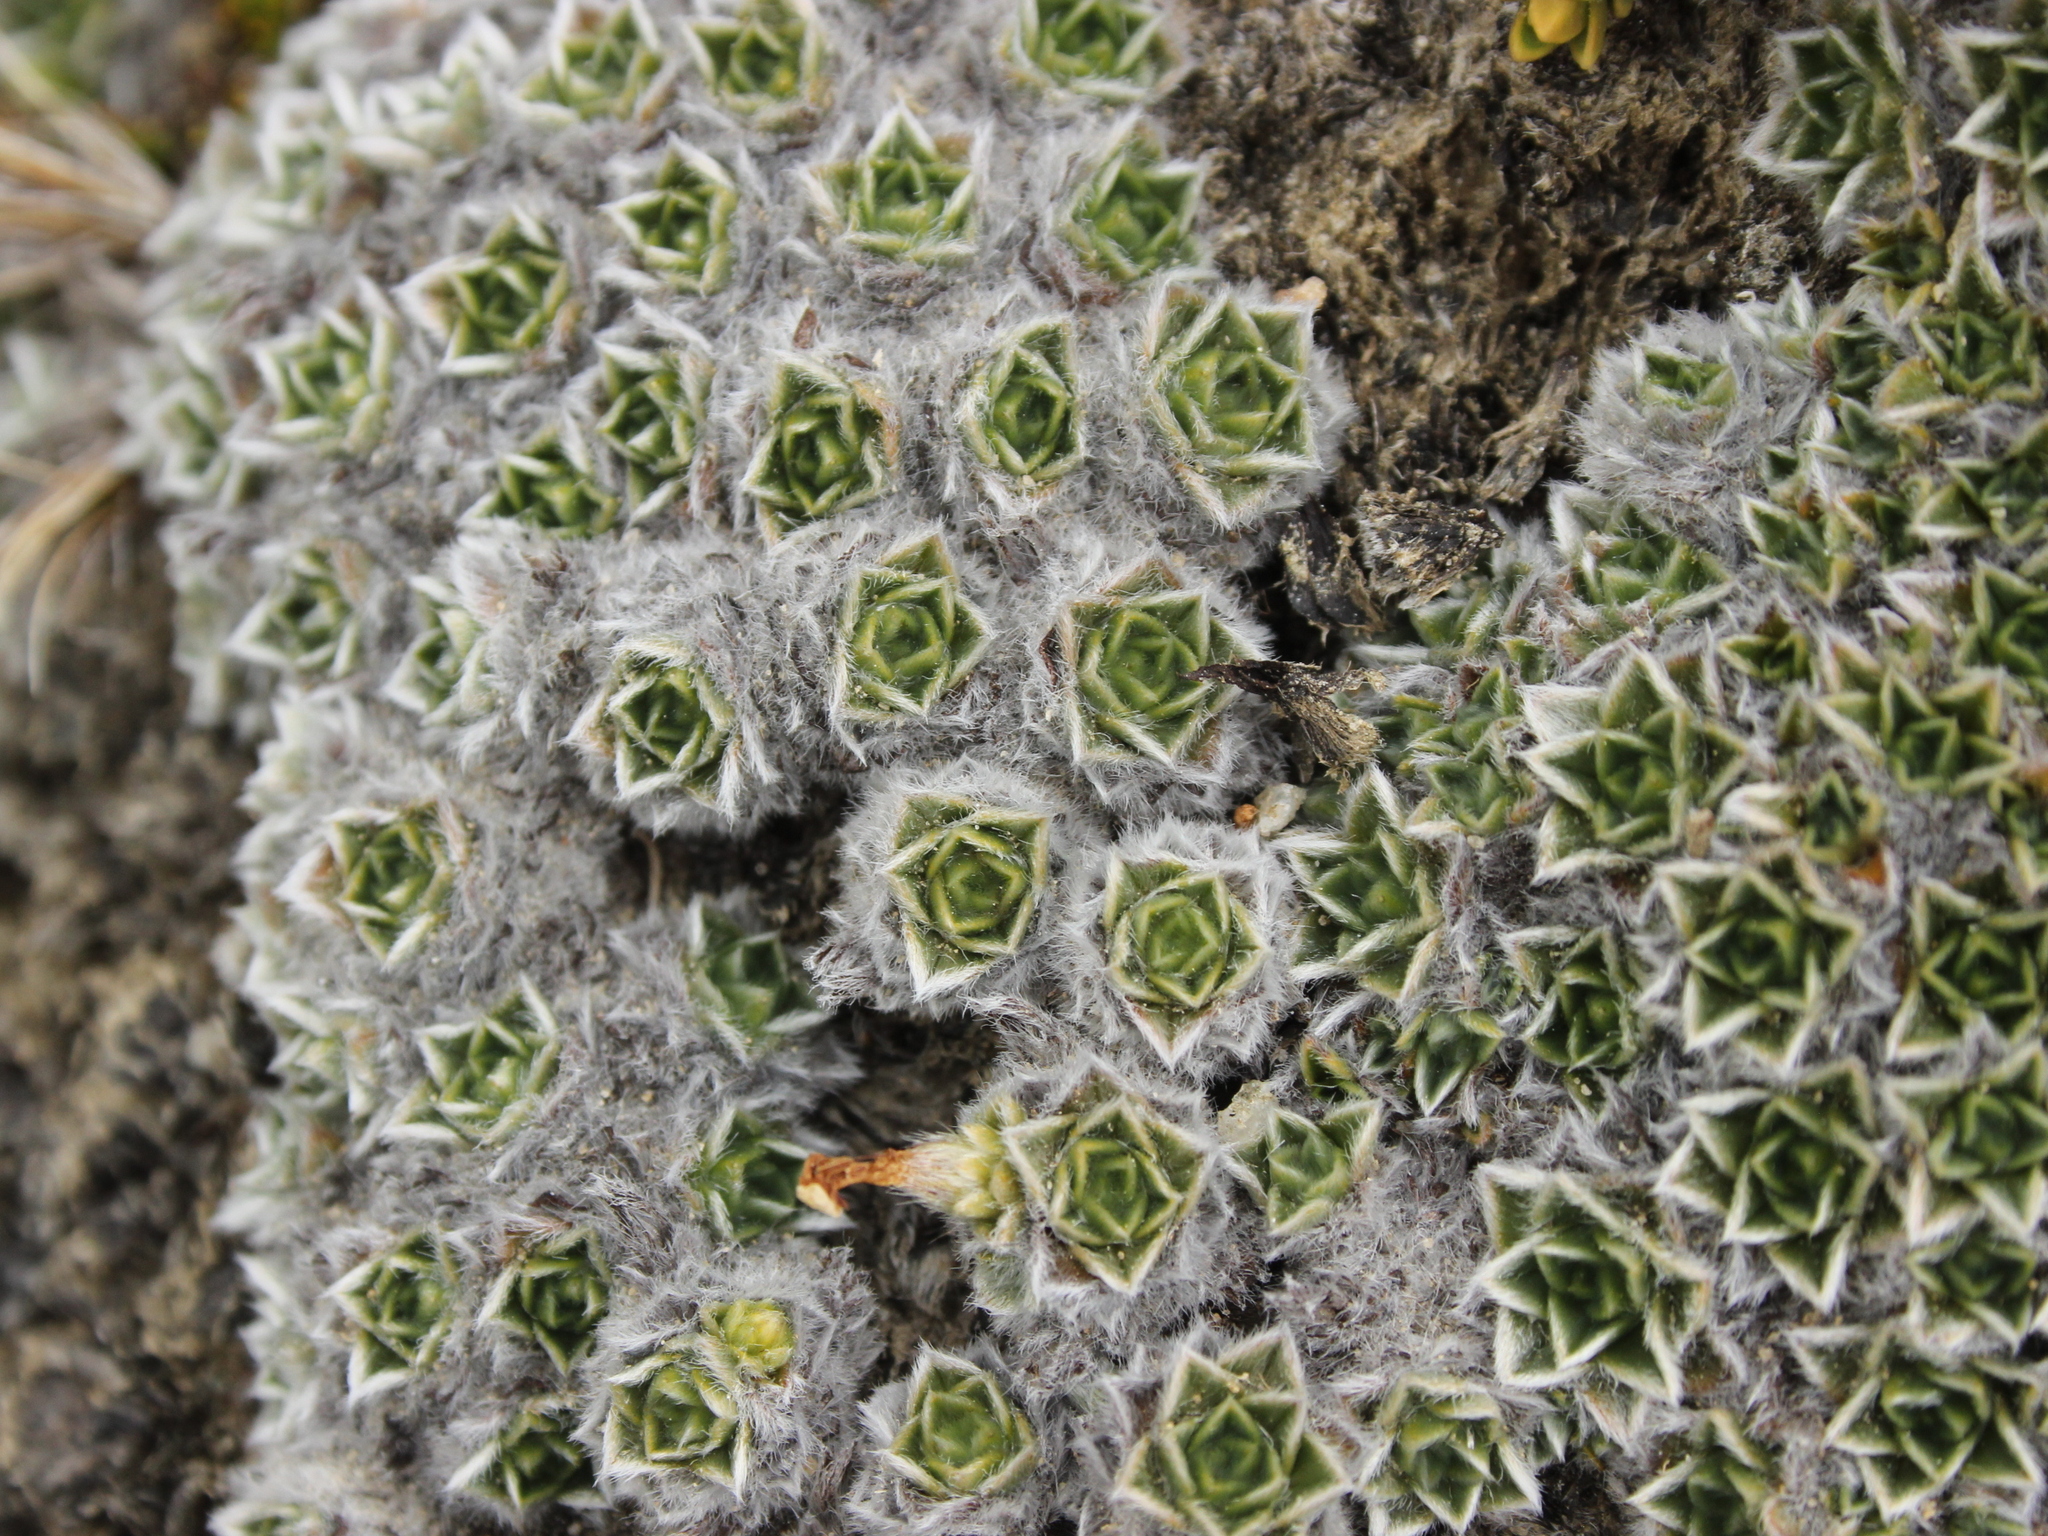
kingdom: Plantae
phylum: Tracheophyta
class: Magnoliopsida
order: Boraginales
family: Boraginaceae
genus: Myosotis
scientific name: Myosotis pulvinaris
